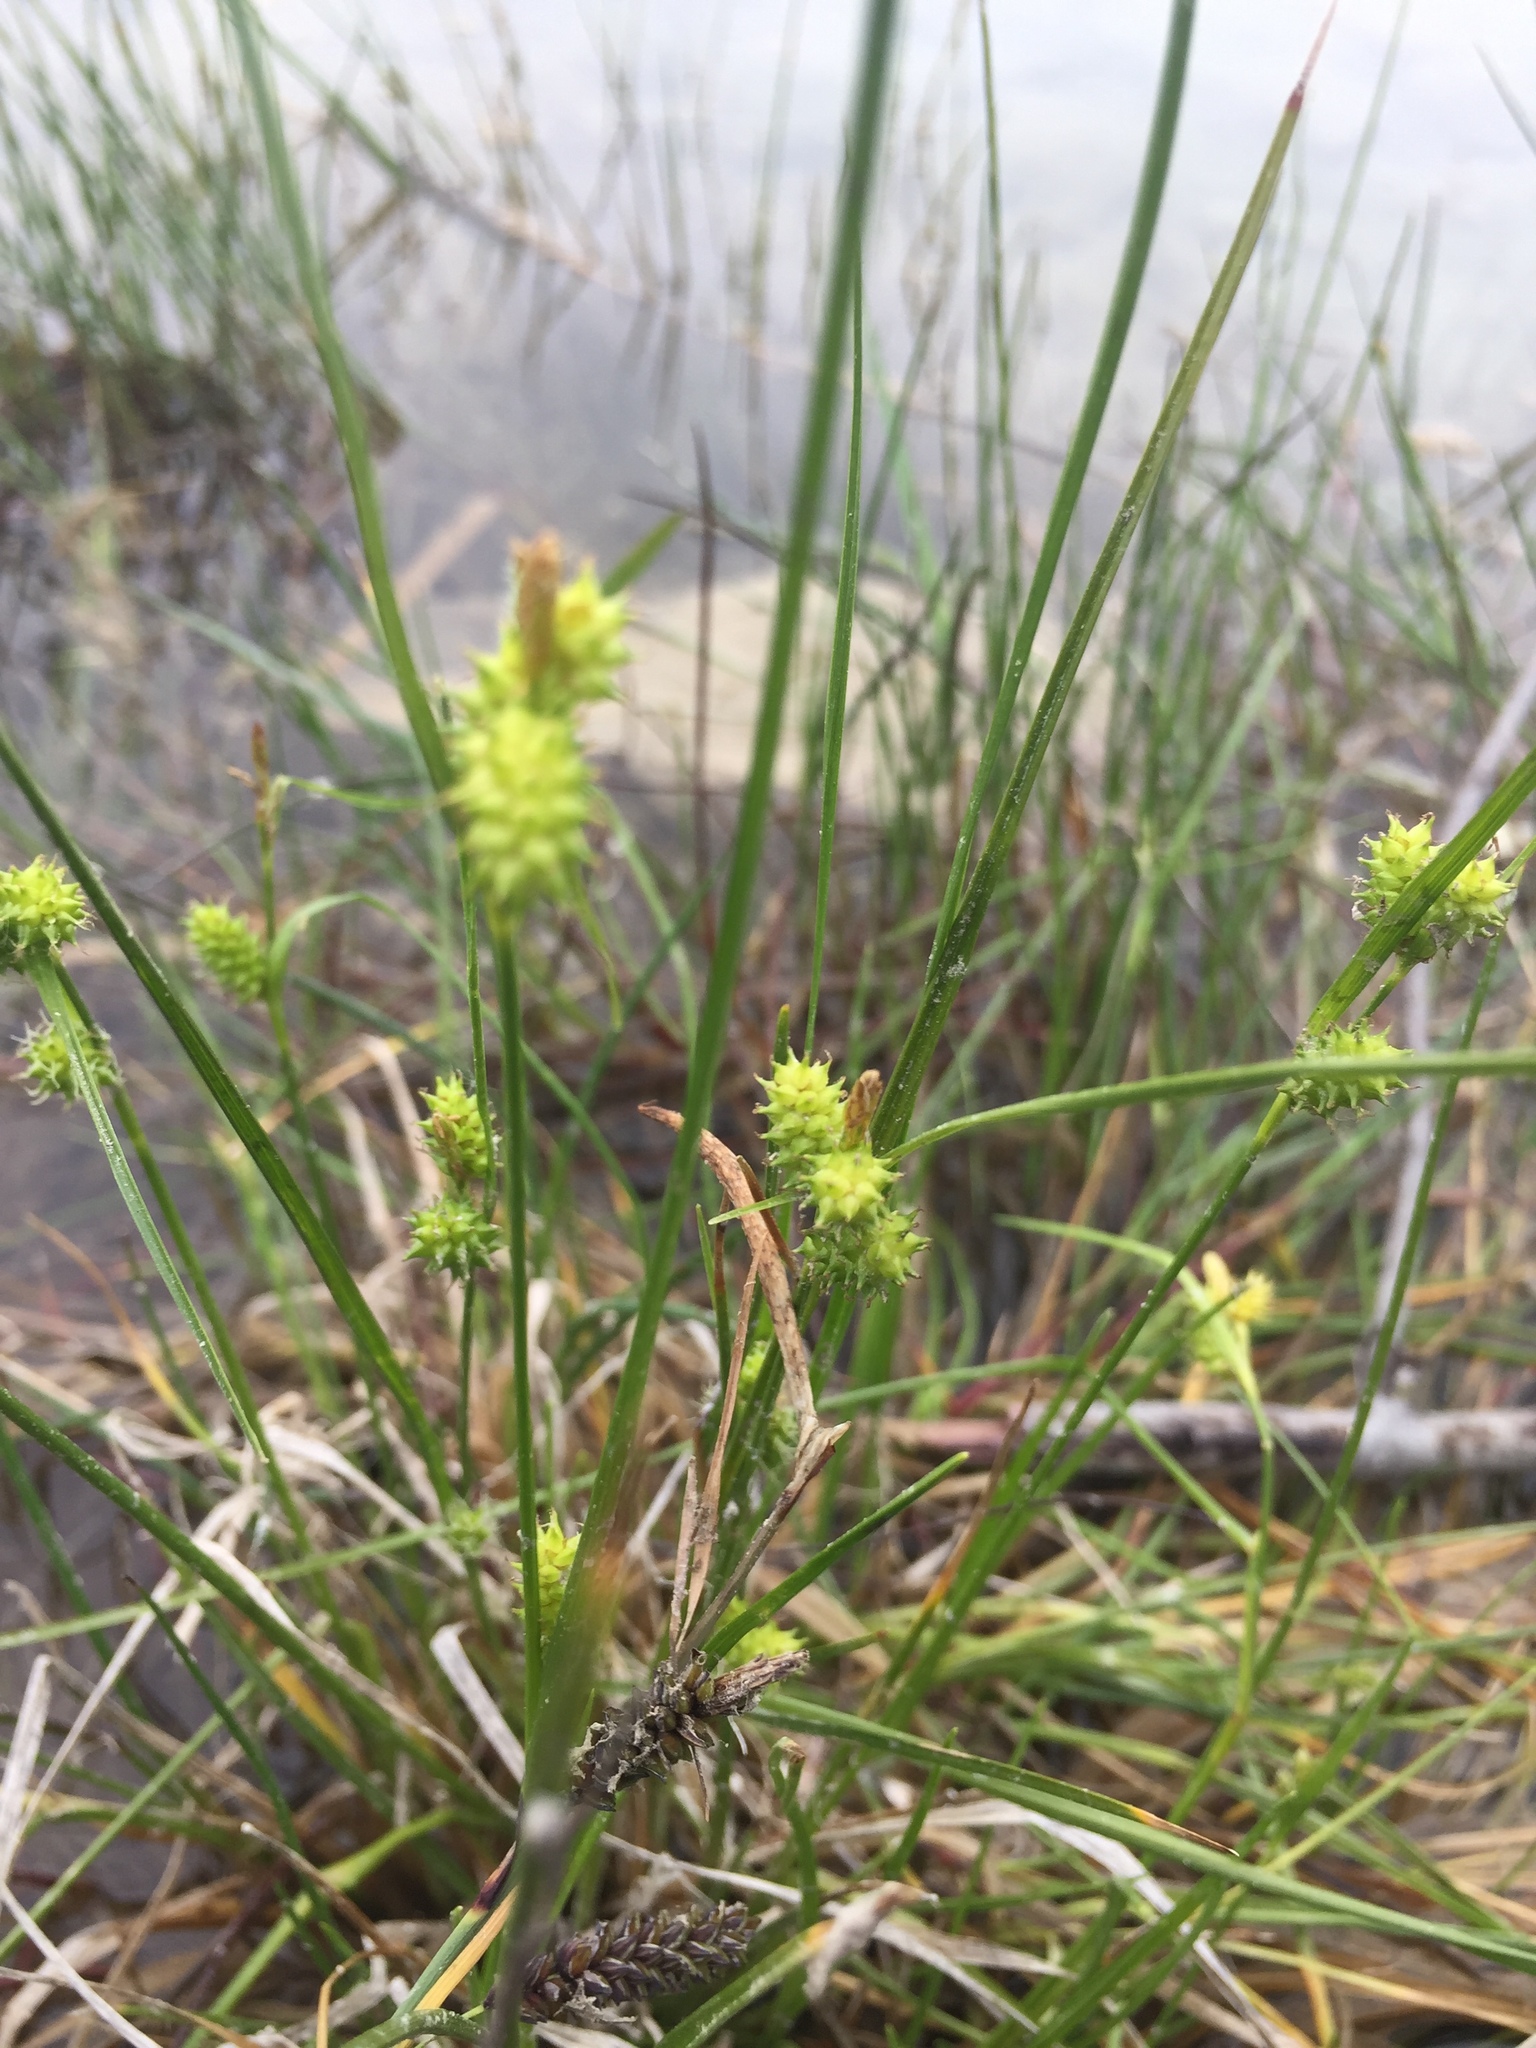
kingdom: Plantae
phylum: Tracheophyta
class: Liliopsida
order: Poales
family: Cyperaceae
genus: Carex
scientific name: Carex
